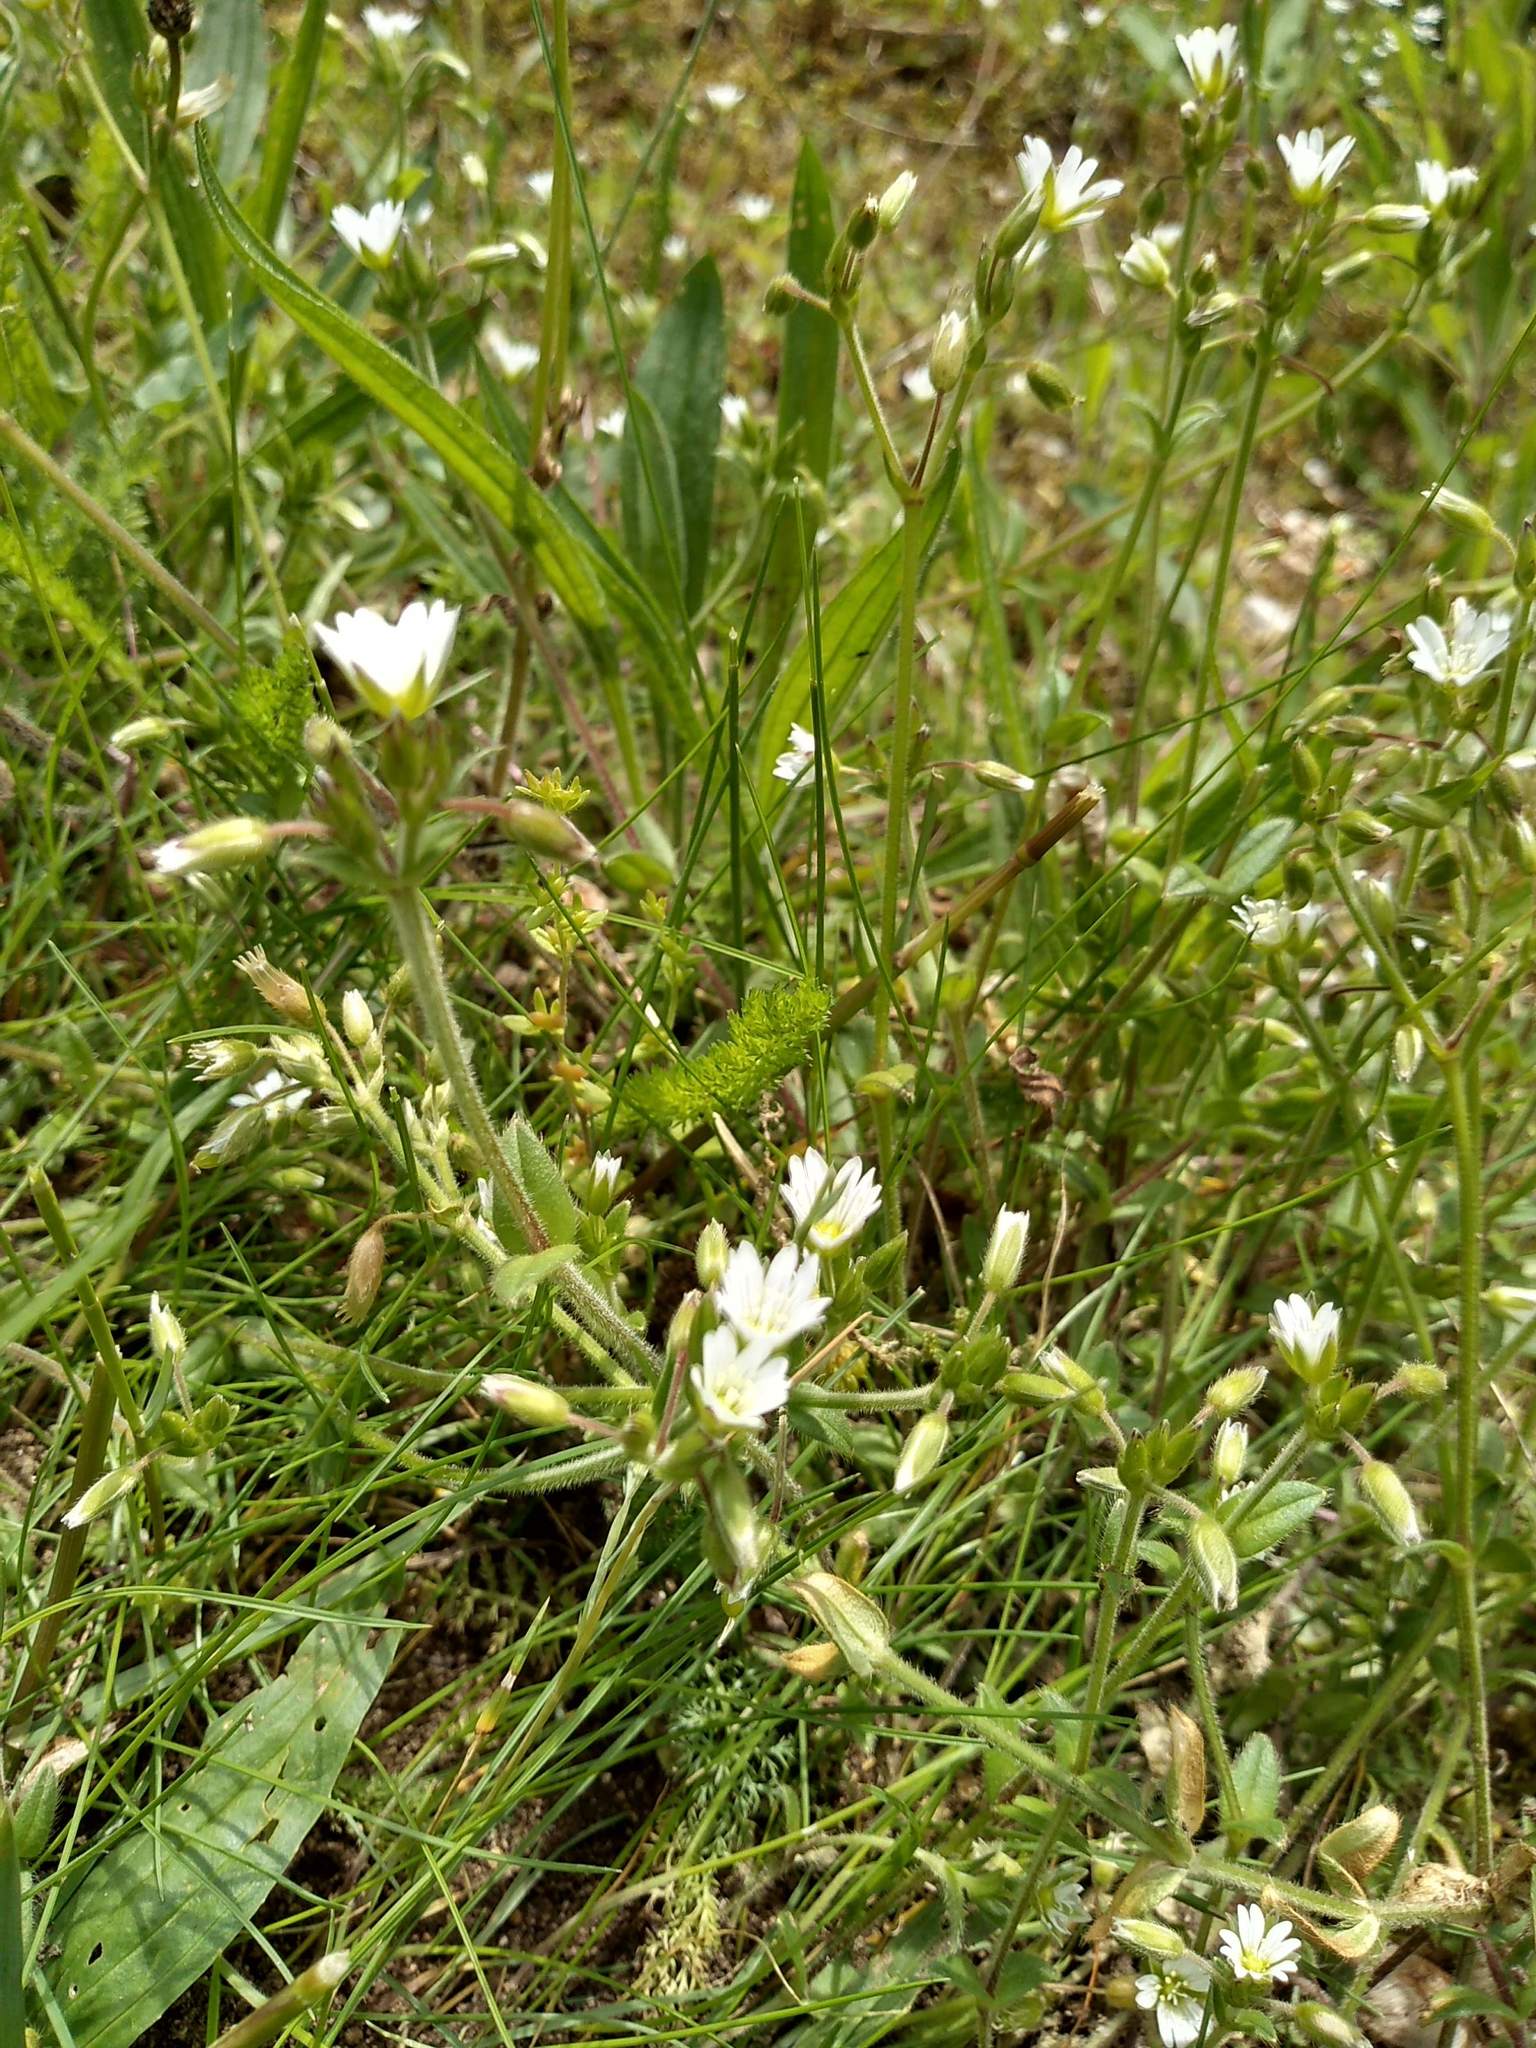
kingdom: Plantae
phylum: Tracheophyta
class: Magnoliopsida
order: Caryophyllales
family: Caryophyllaceae
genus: Cerastium
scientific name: Cerastium fontanum
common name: Common mouse-ear
